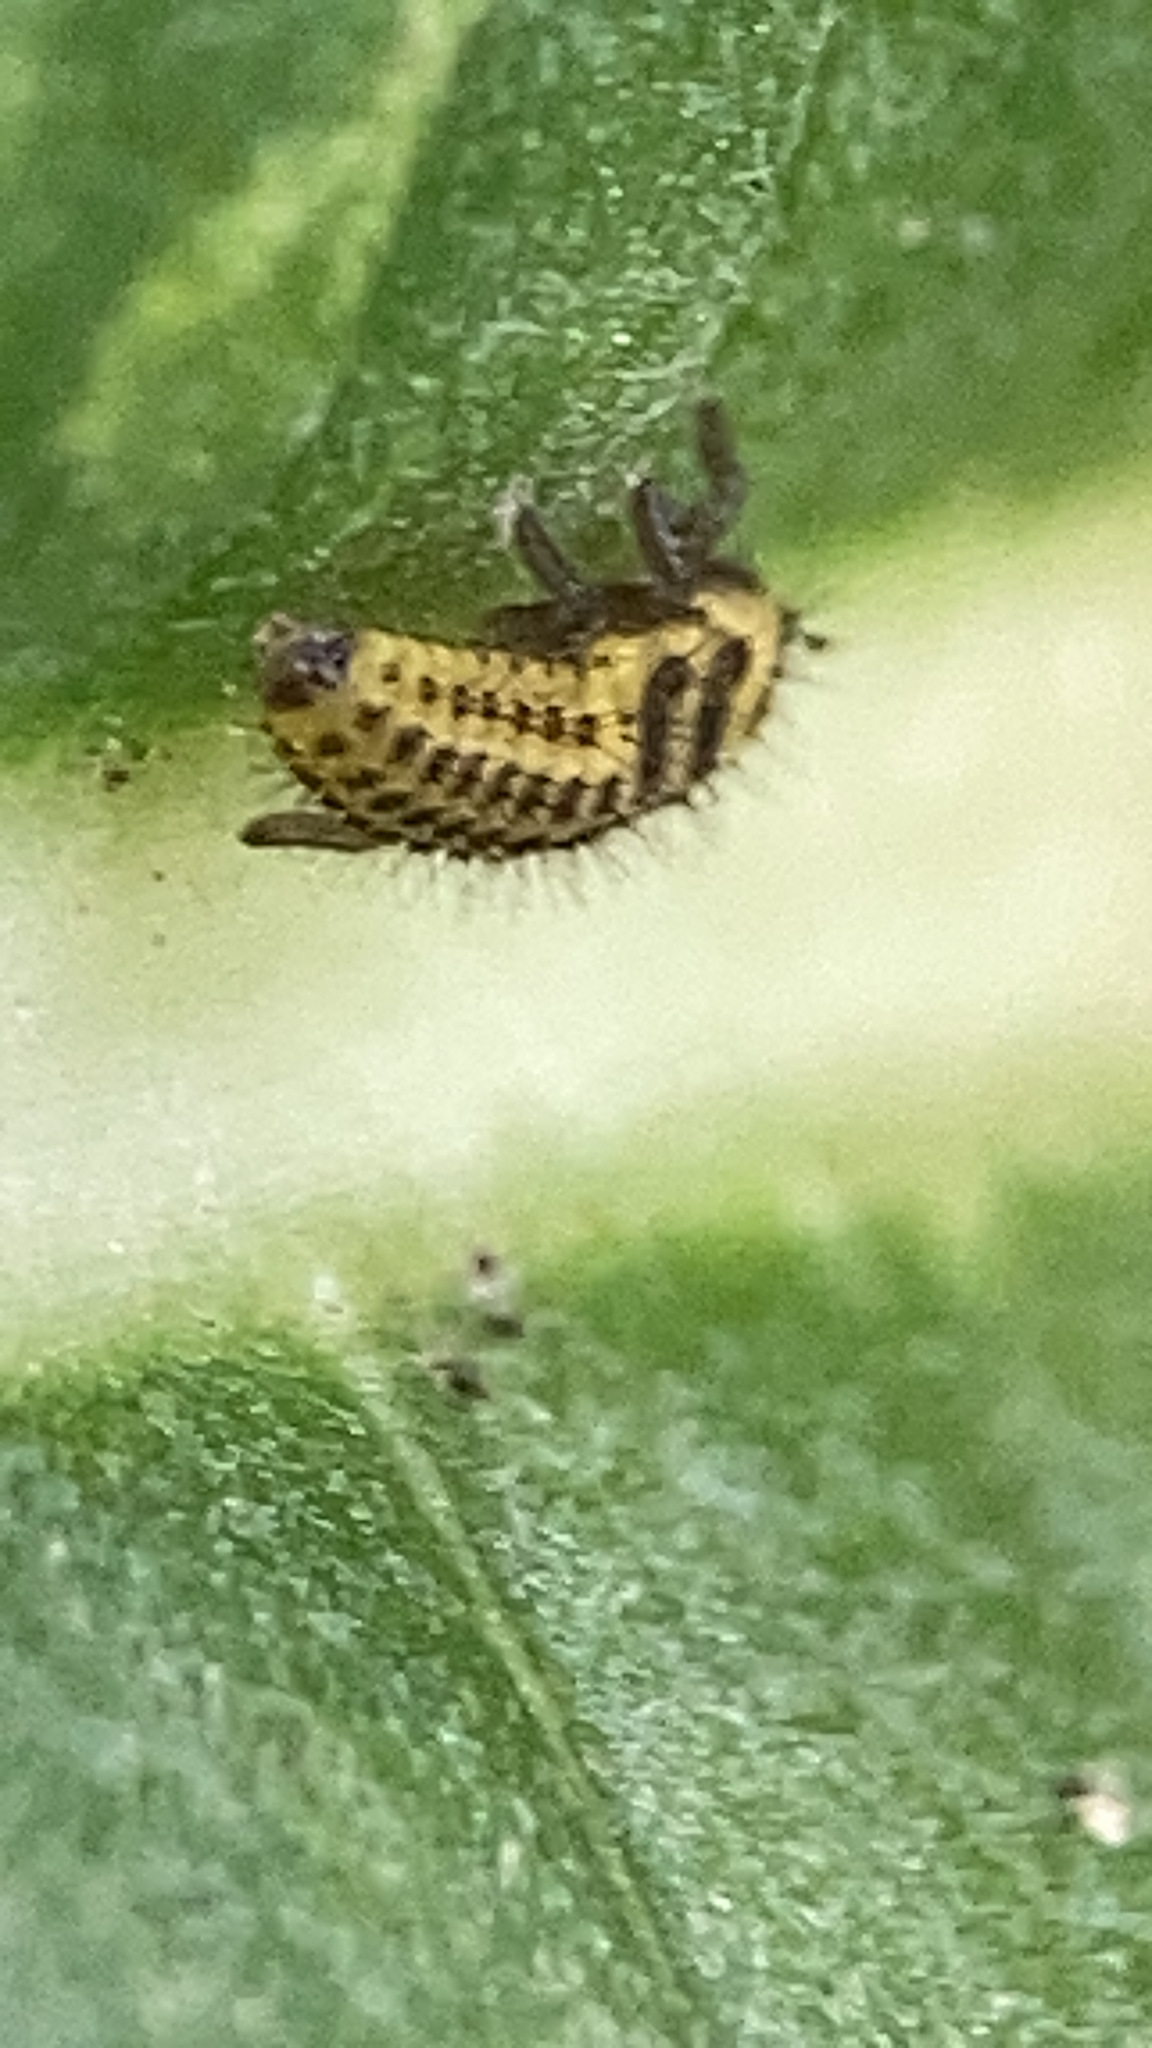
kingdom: Animalia
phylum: Arthropoda
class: Insecta
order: Coleoptera
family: Coccinellidae
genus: Psyllobora
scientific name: Psyllobora vigintiduopunctata
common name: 22-spot ladybird
